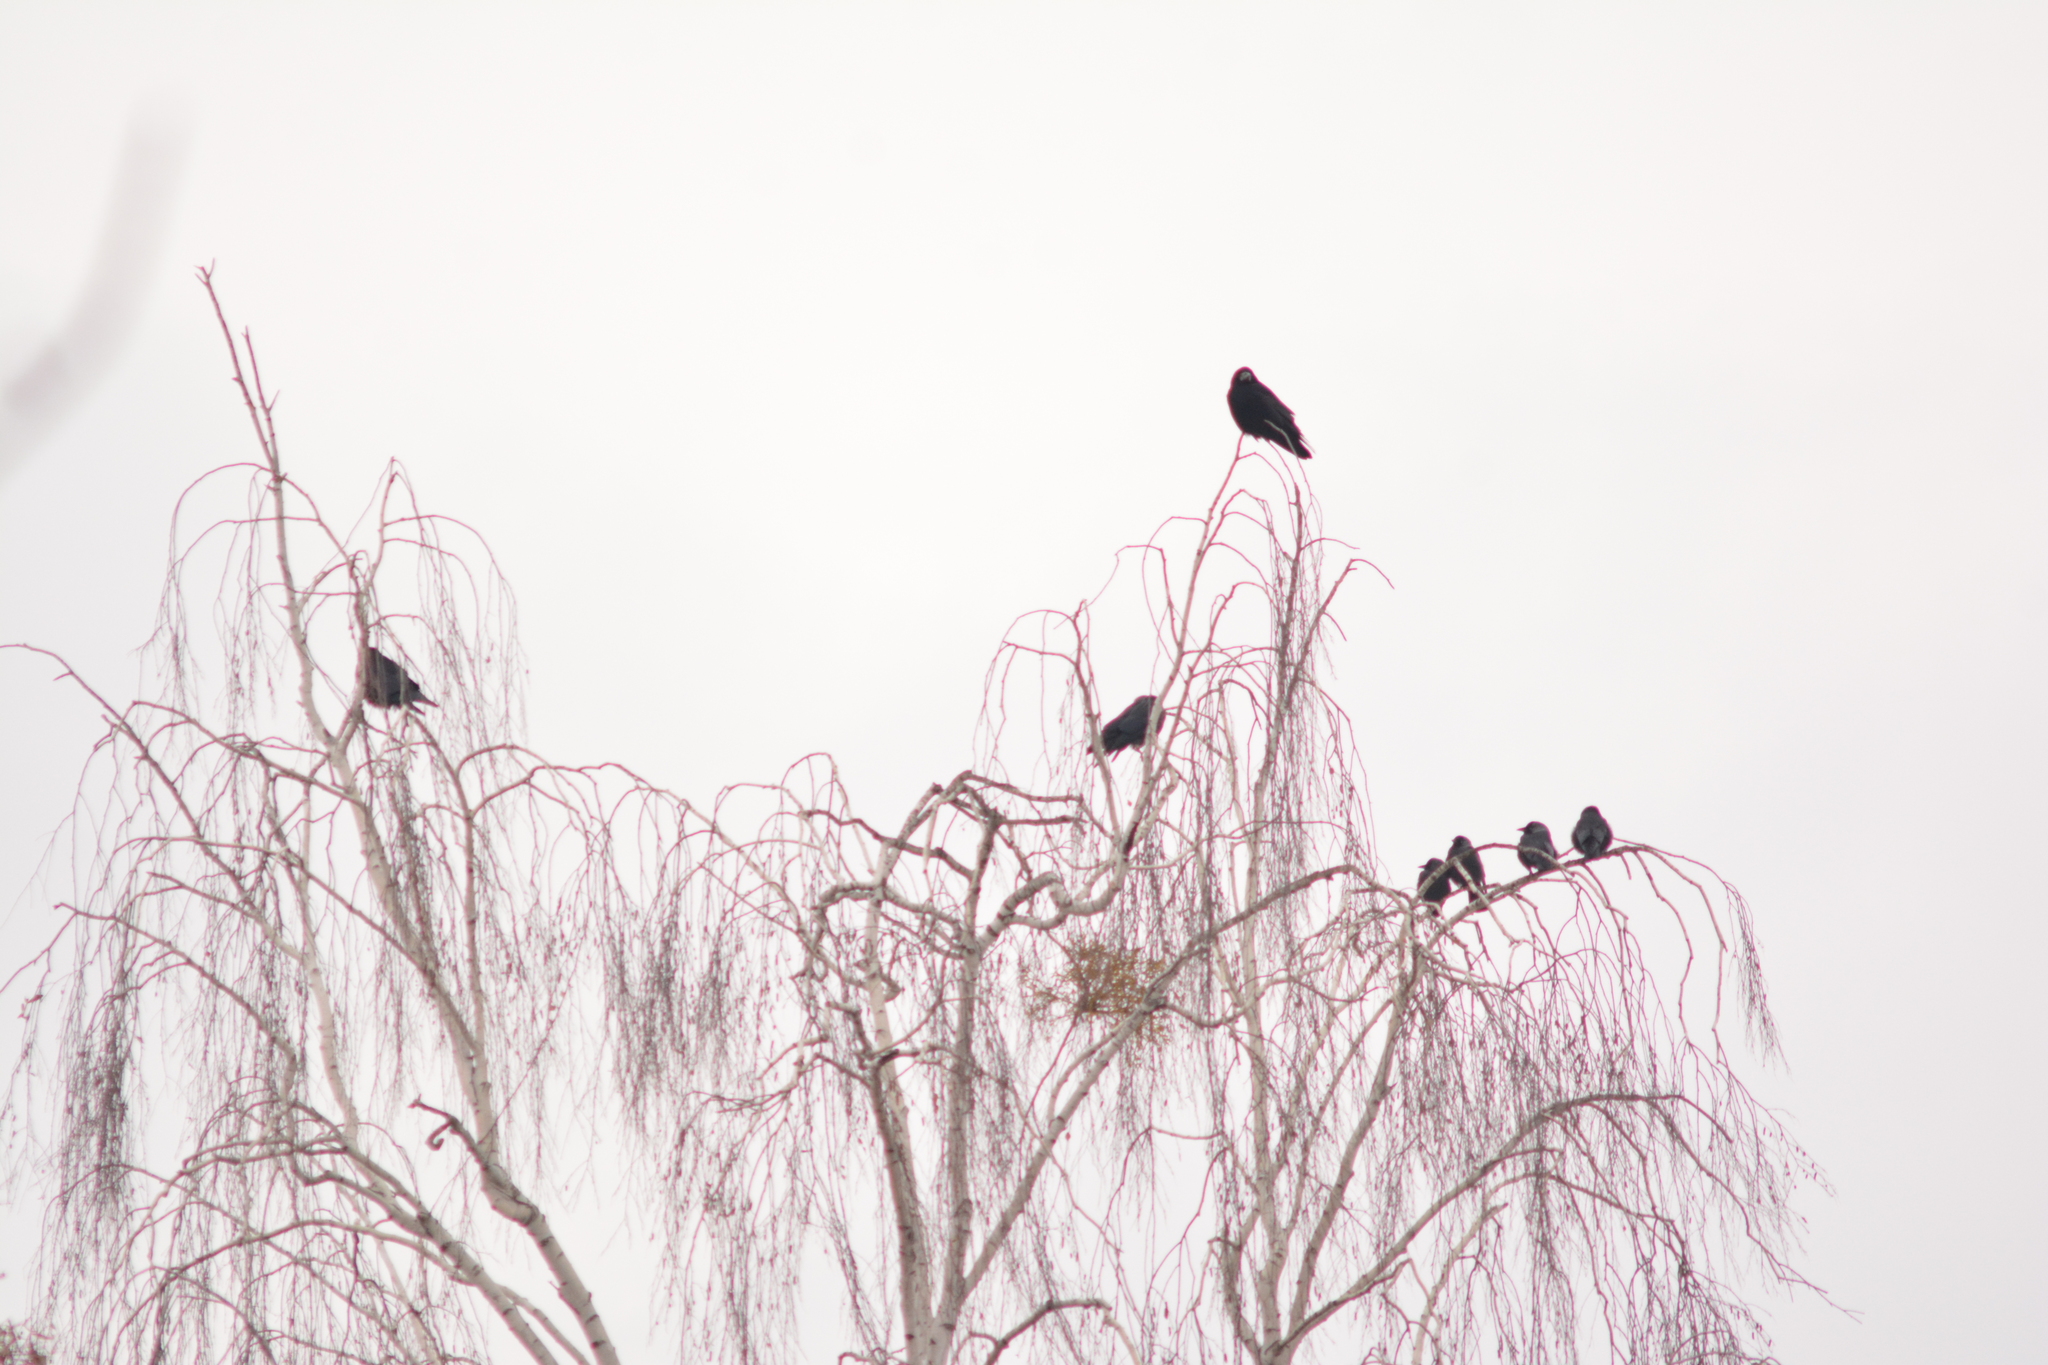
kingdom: Animalia
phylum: Chordata
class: Aves
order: Passeriformes
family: Corvidae
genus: Coloeus
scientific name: Coloeus monedula
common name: Western jackdaw
